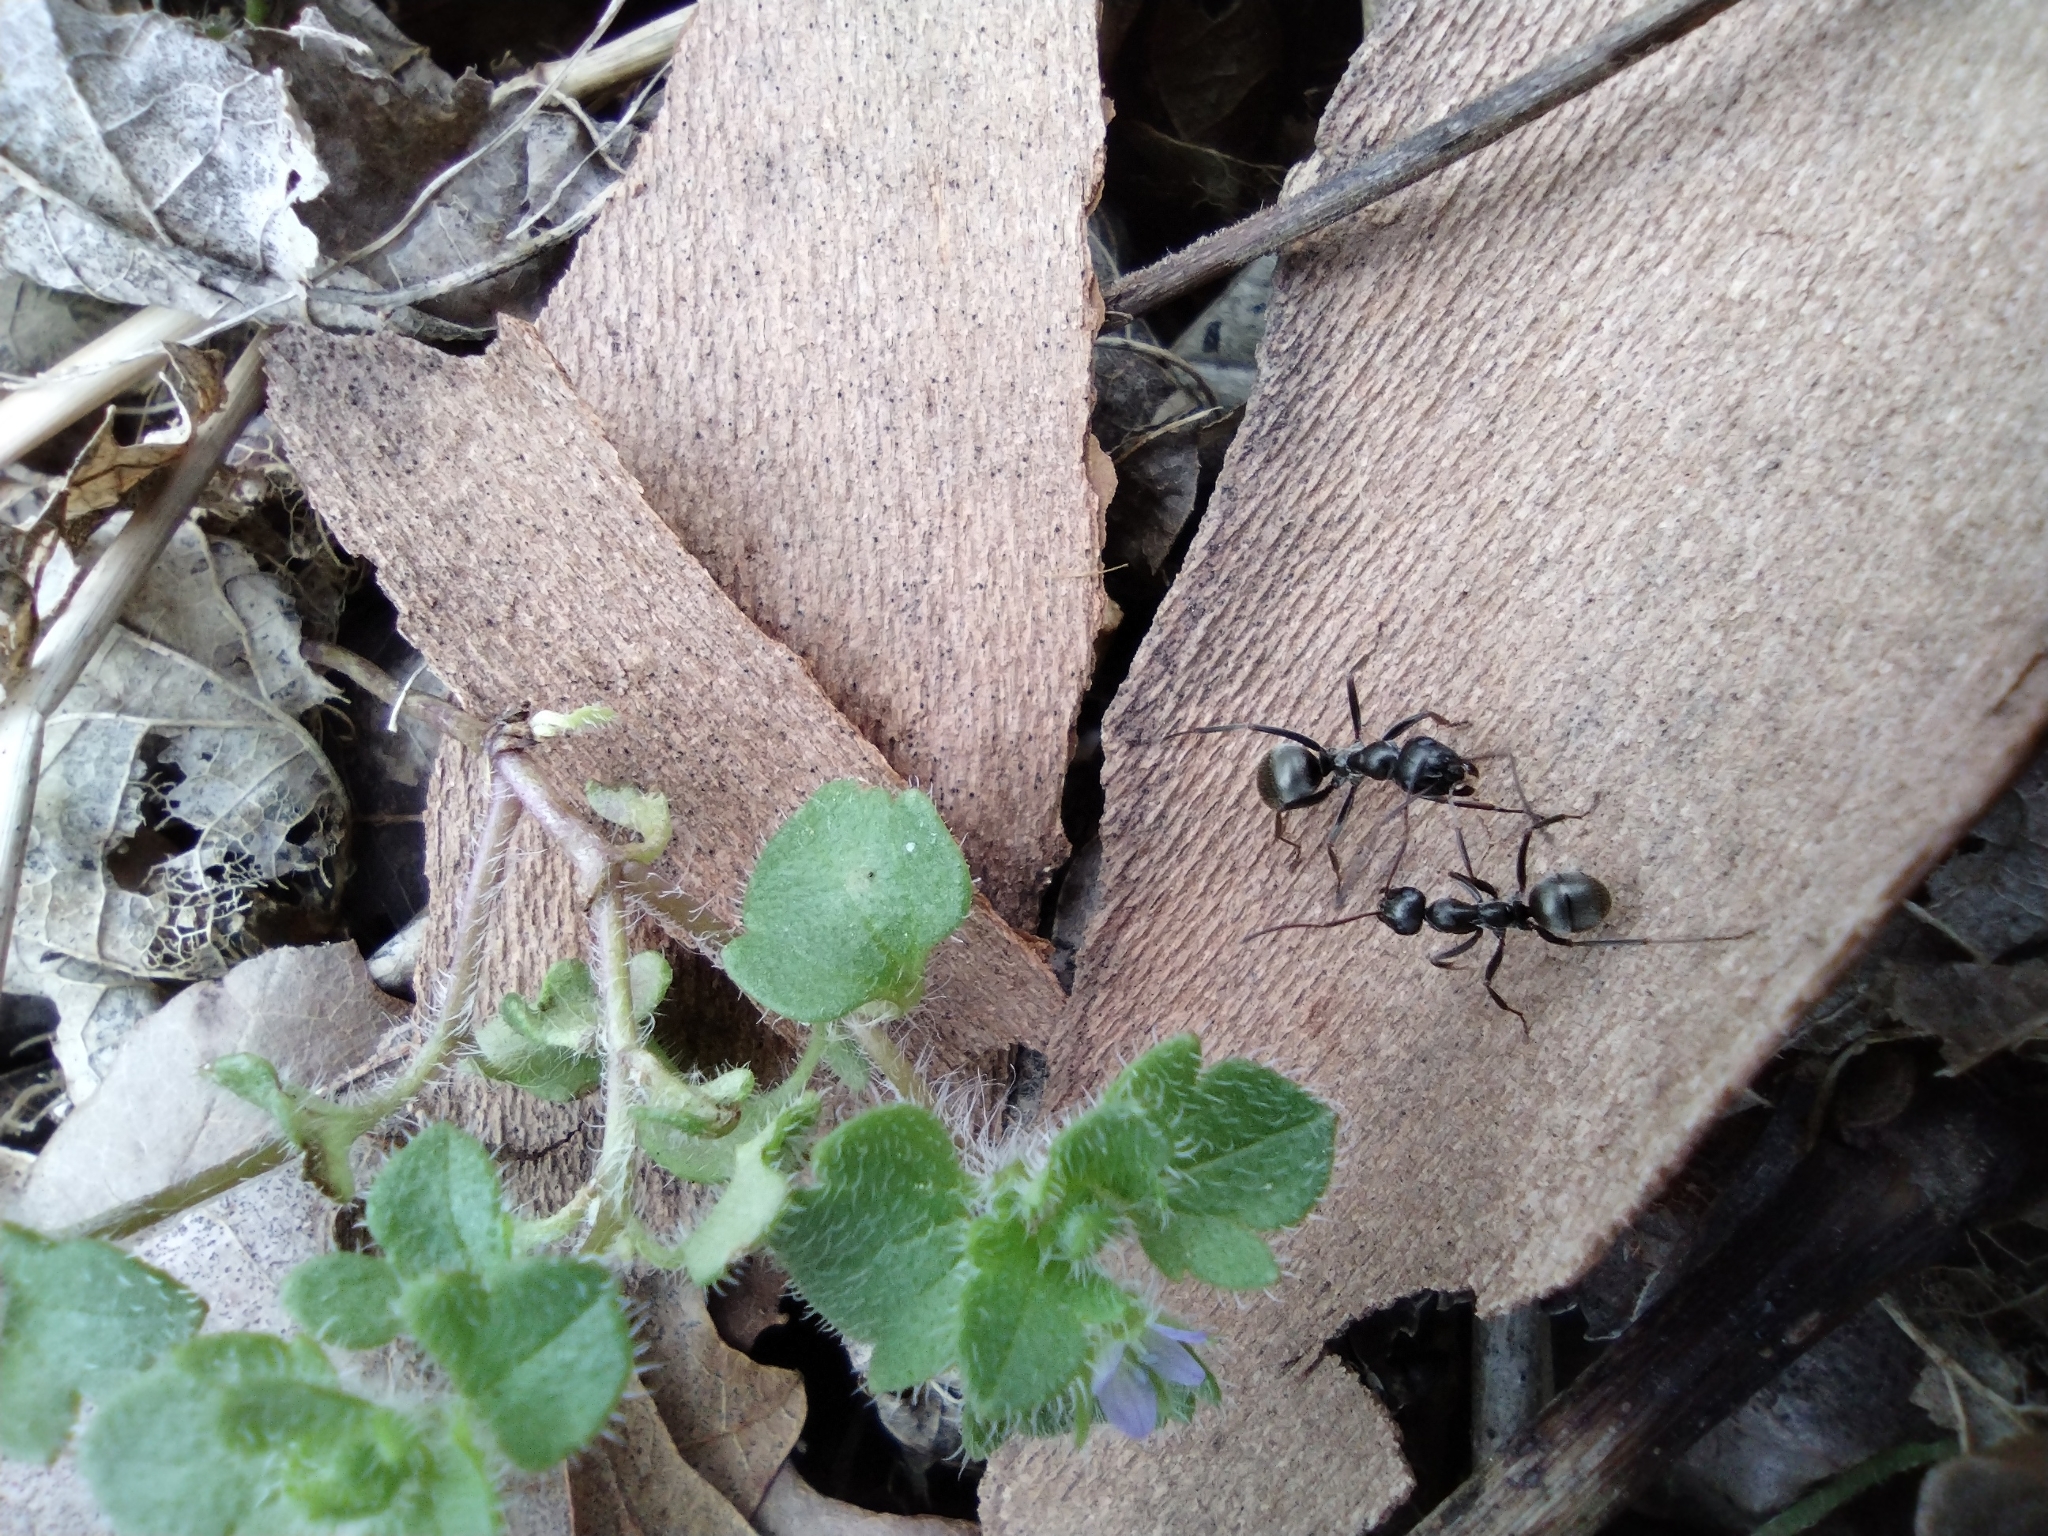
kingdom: Animalia
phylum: Arthropoda
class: Insecta
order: Hymenoptera
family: Formicidae
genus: Formica
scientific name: Formica subsericea
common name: Silky field ant
